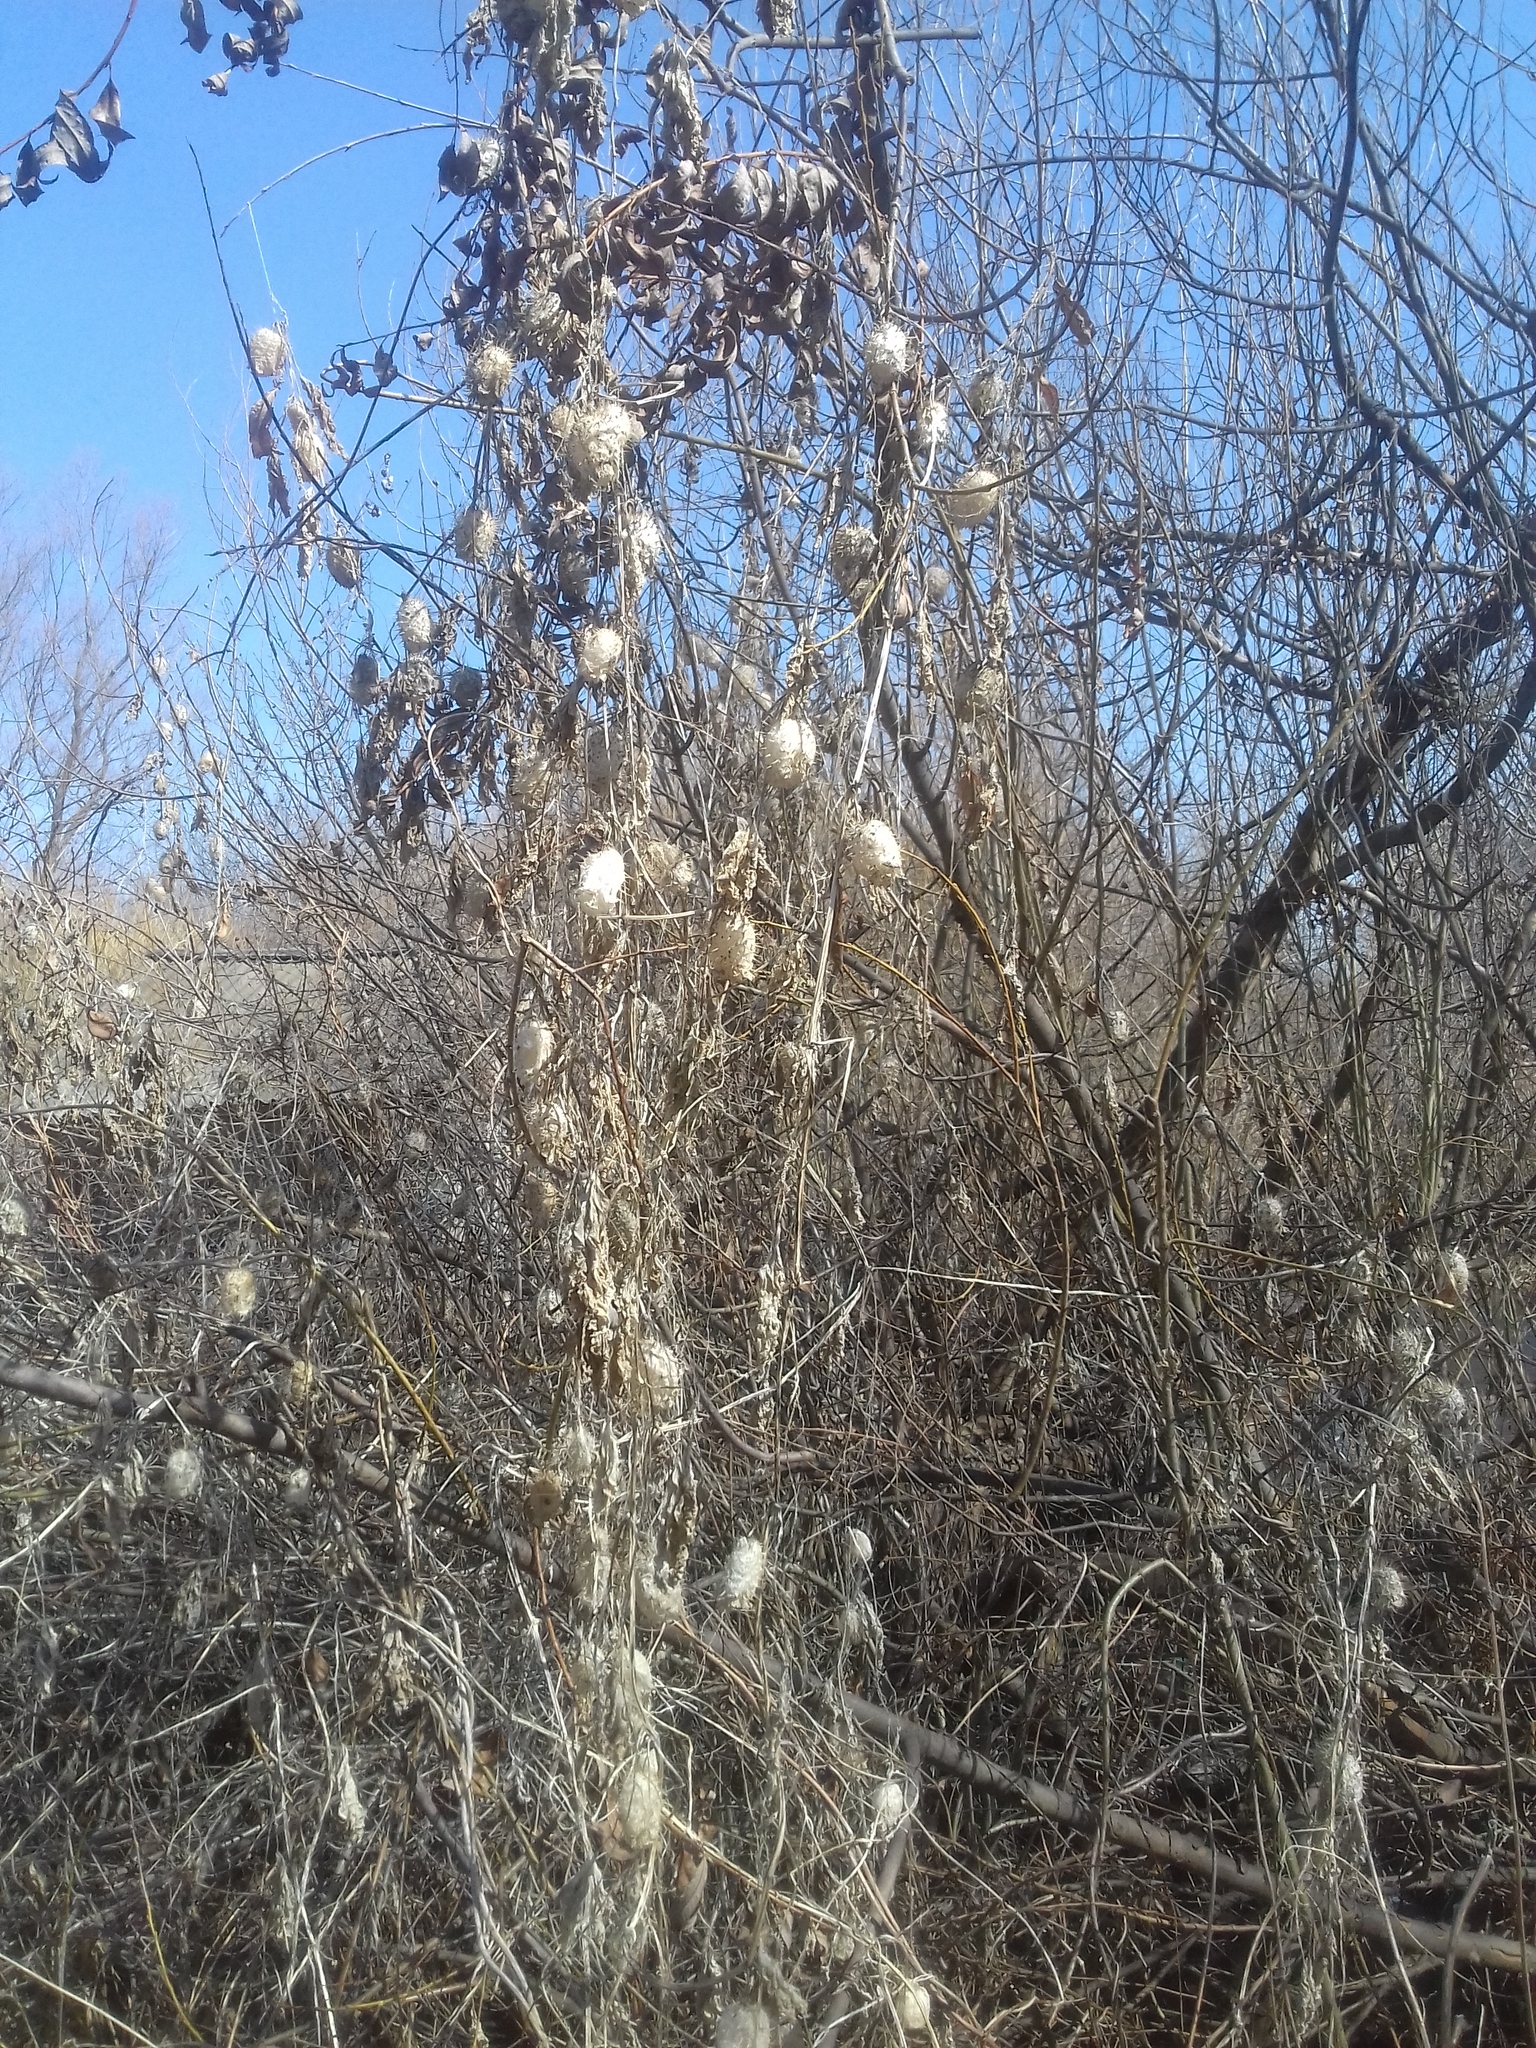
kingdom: Plantae
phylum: Tracheophyta
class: Magnoliopsida
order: Cucurbitales
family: Cucurbitaceae
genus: Echinocystis
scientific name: Echinocystis lobata
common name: Wild cucumber
